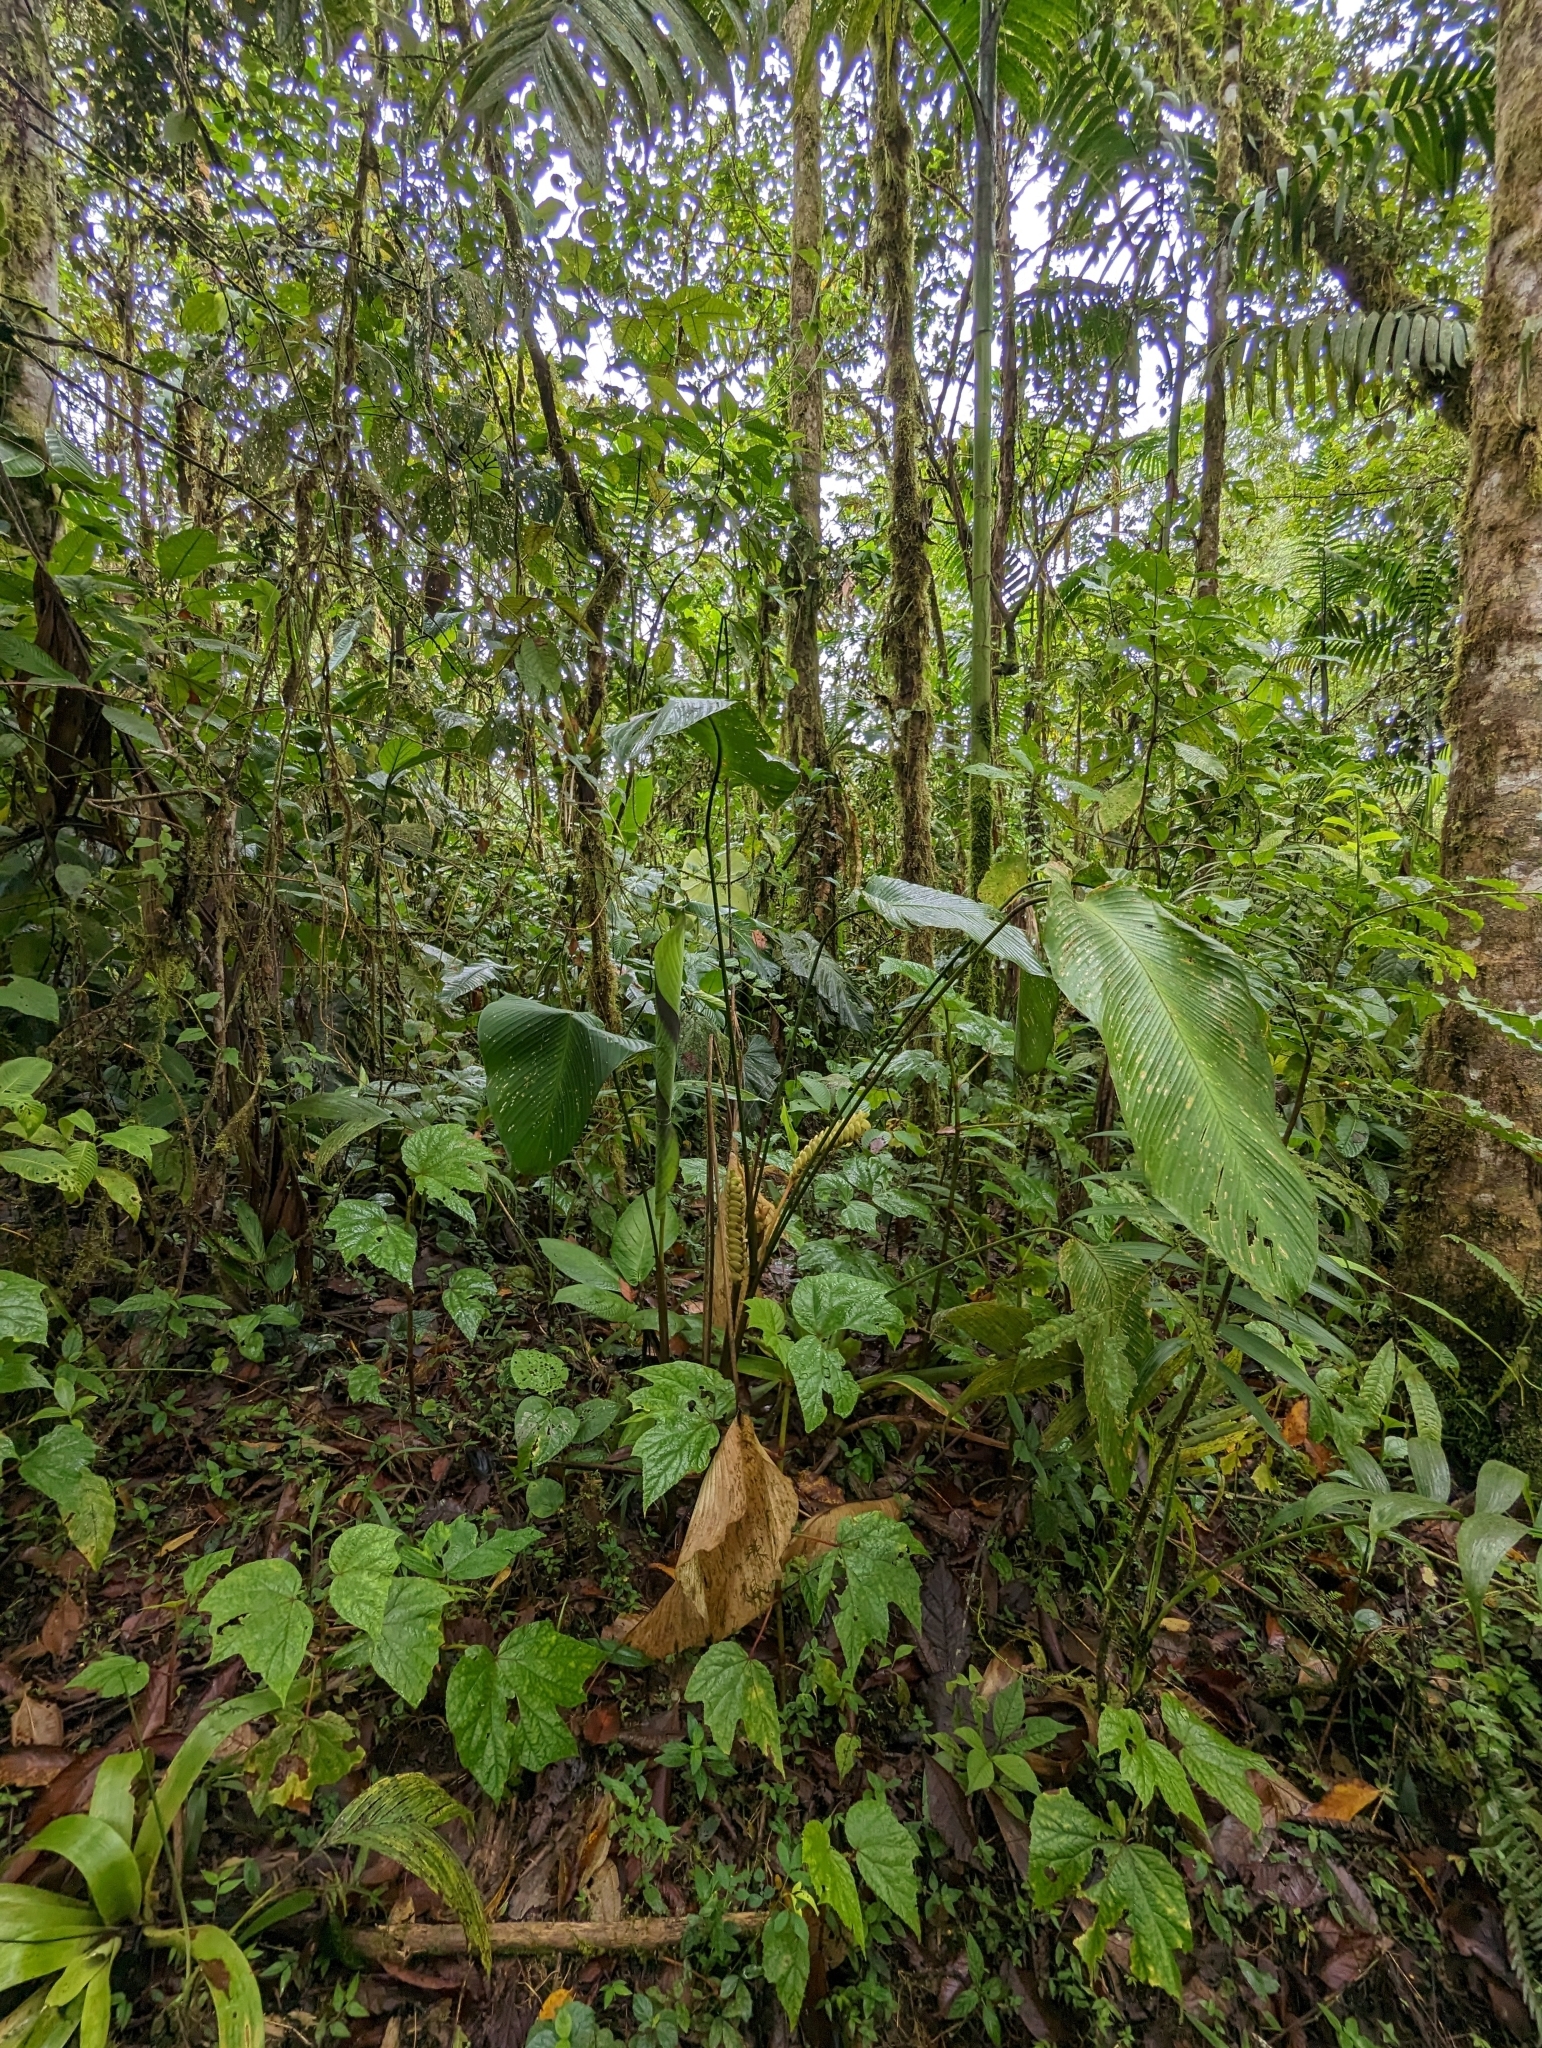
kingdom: Plantae
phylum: Tracheophyta
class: Liliopsida
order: Zingiberales
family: Marantaceae
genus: Calathea
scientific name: Calathea crotalifera
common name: Rattlesnake plant
